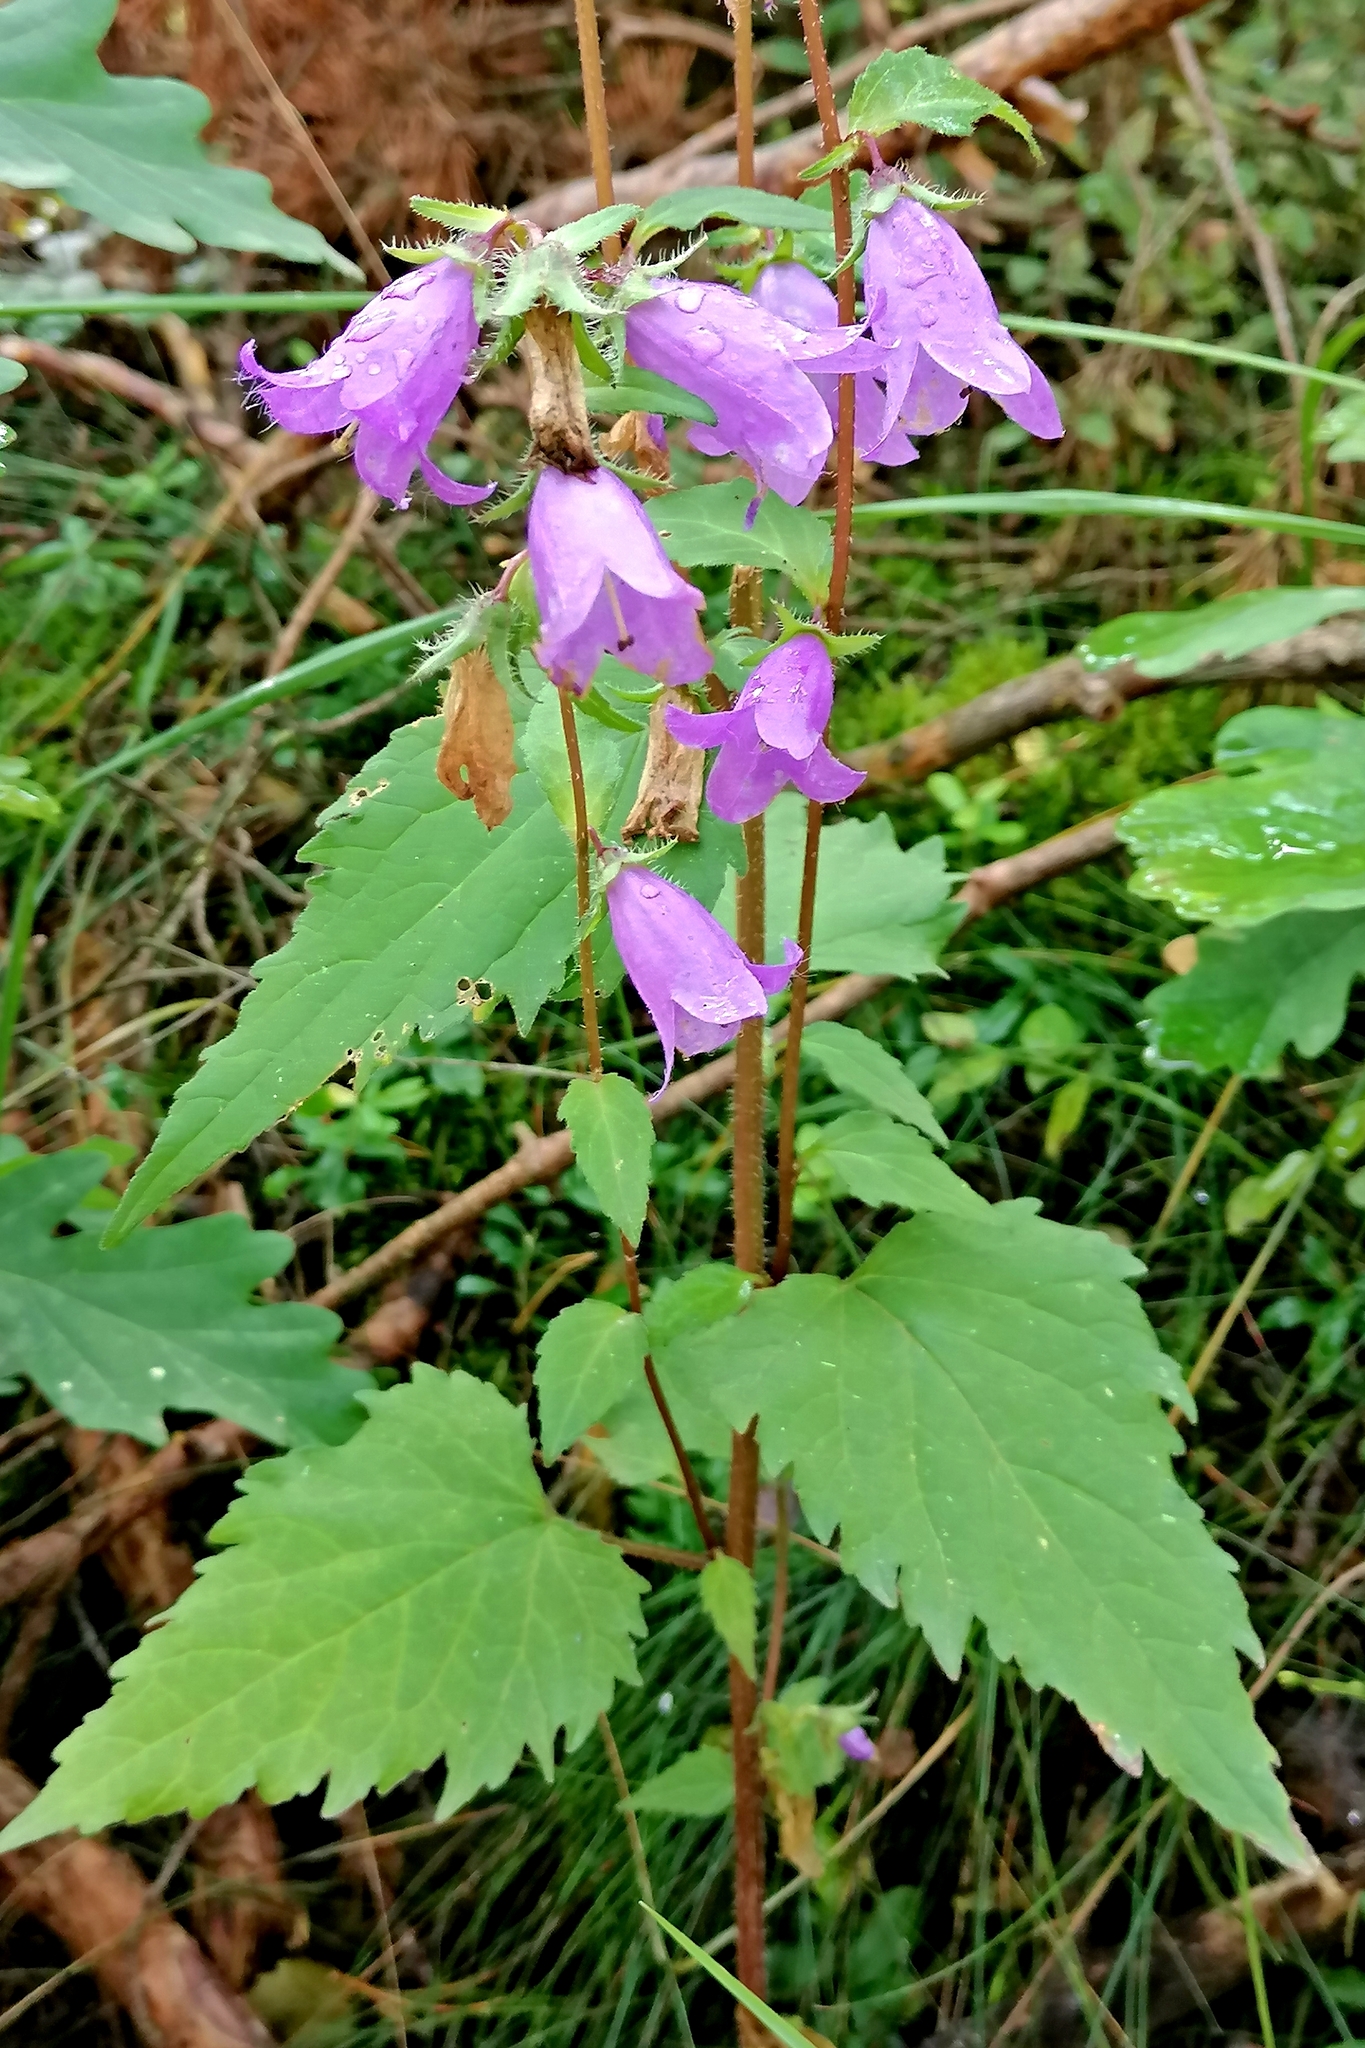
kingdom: Plantae
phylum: Tracheophyta
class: Magnoliopsida
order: Asterales
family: Campanulaceae
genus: Campanula
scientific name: Campanula trachelium
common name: Nettle-leaved bellflower
